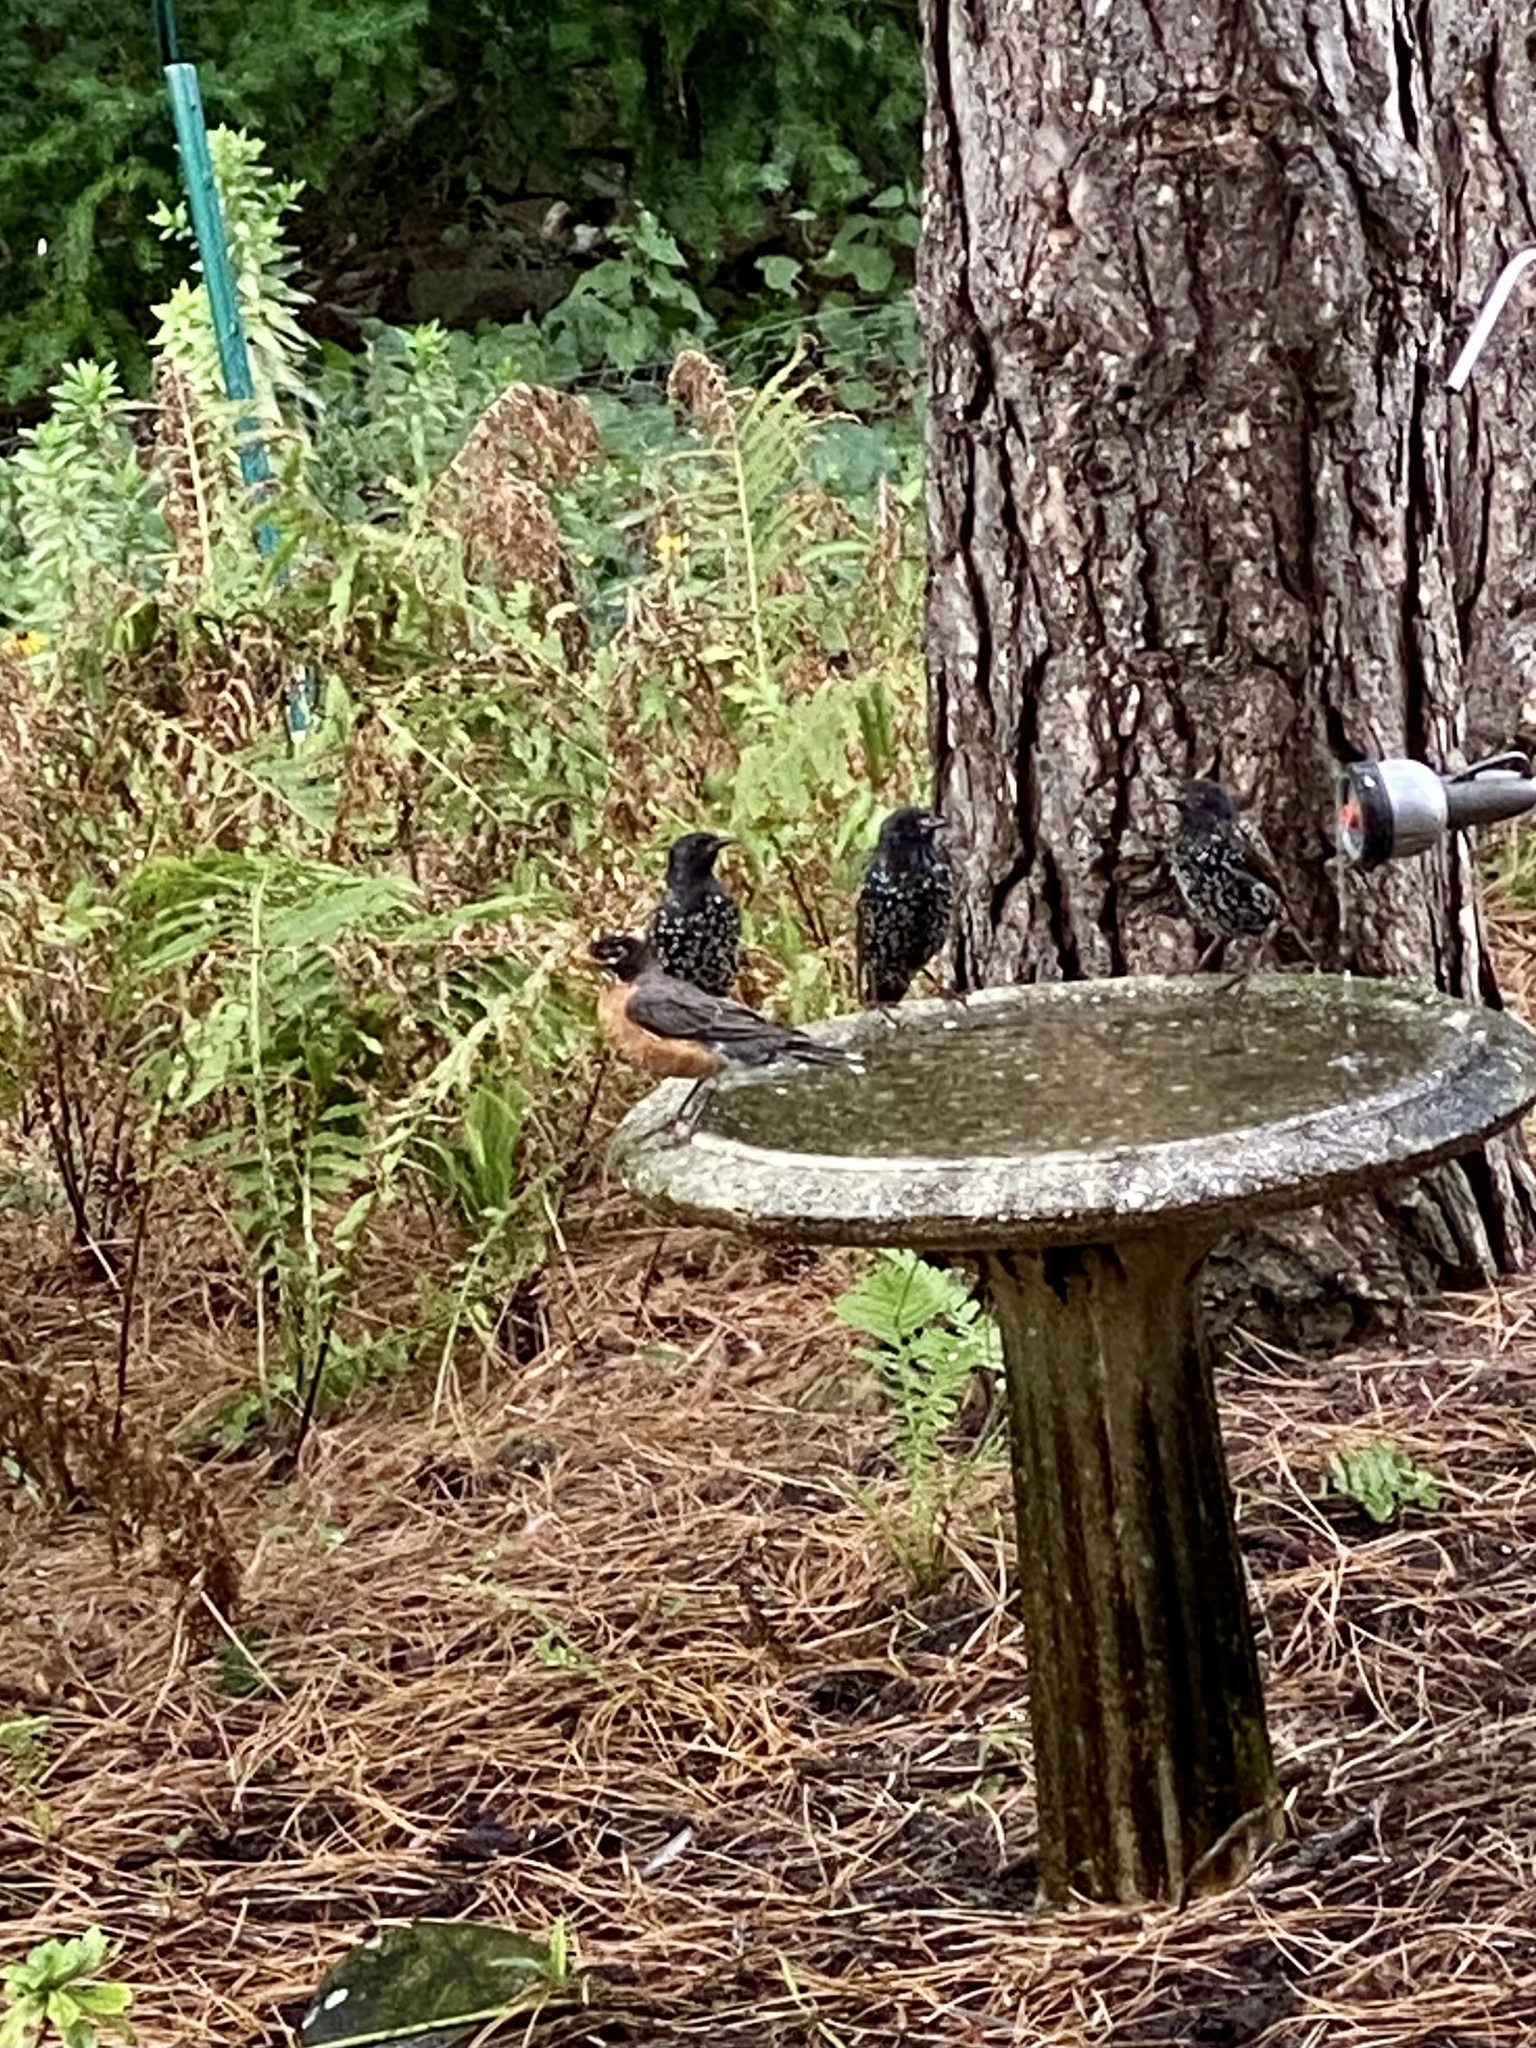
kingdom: Animalia
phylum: Chordata
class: Aves
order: Passeriformes
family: Turdidae
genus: Turdus
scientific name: Turdus migratorius
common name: American robin
